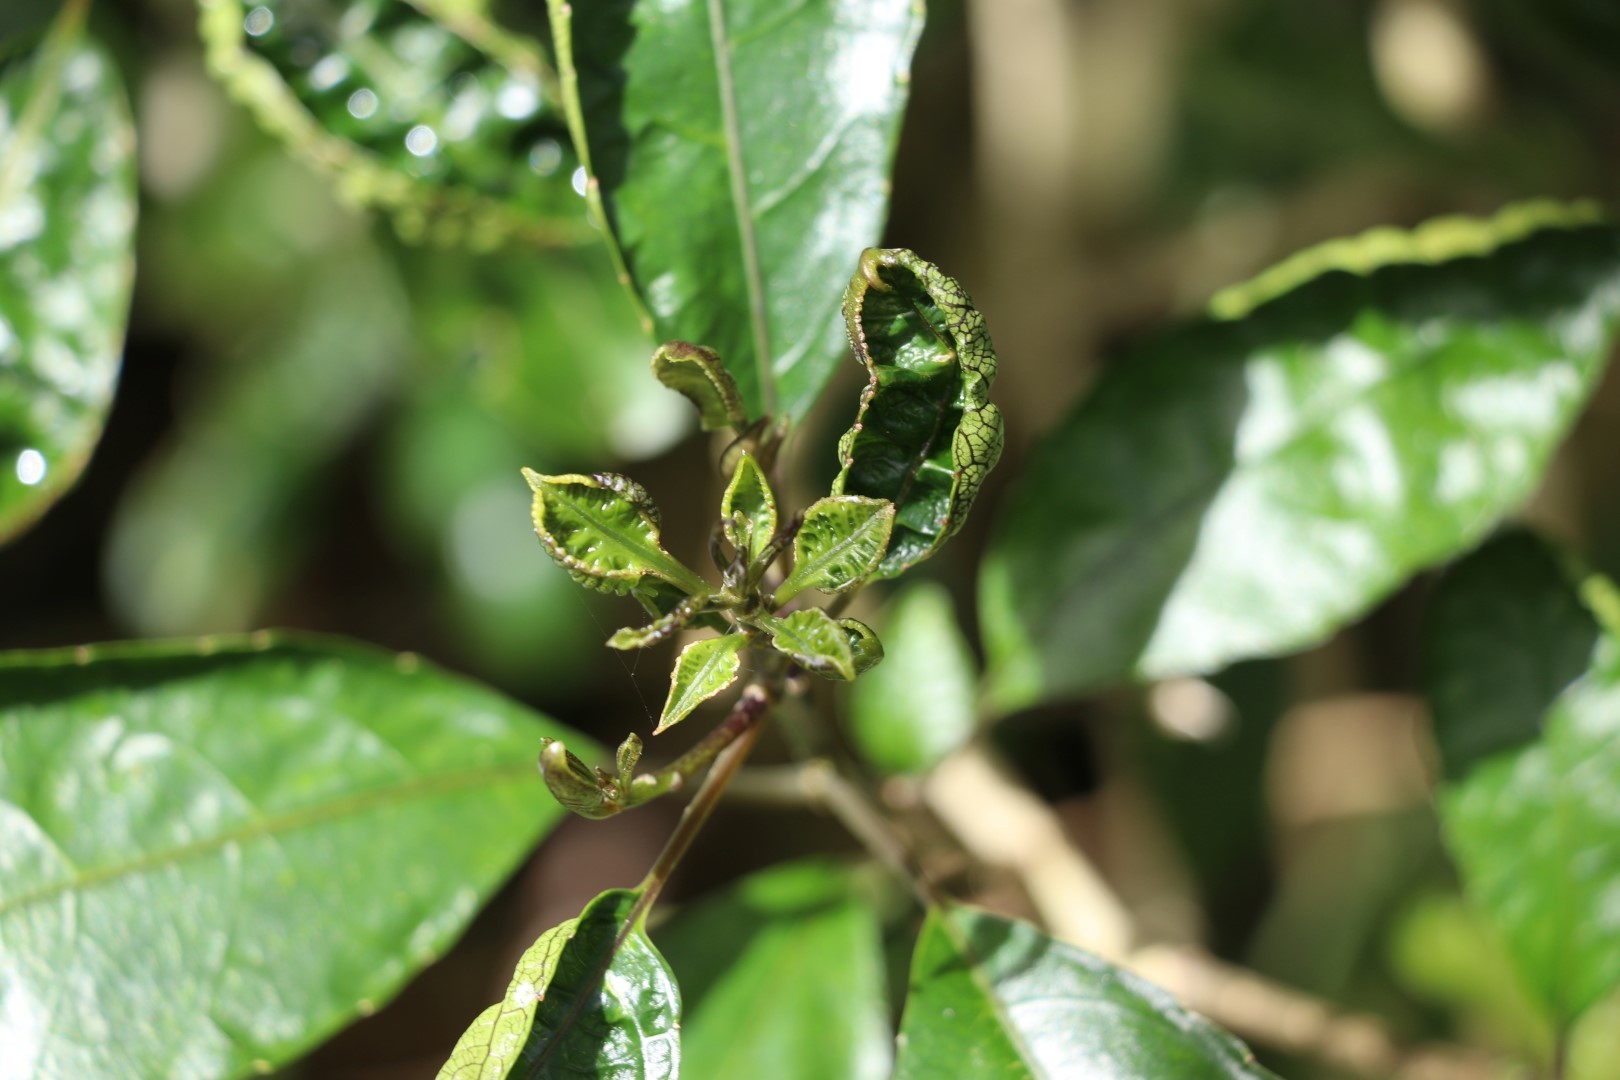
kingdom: Plantae
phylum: Tracheophyta
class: Magnoliopsida
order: Malpighiales
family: Violaceae
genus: Melicytus
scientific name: Melicytus ramiflorus
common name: Mahoe
